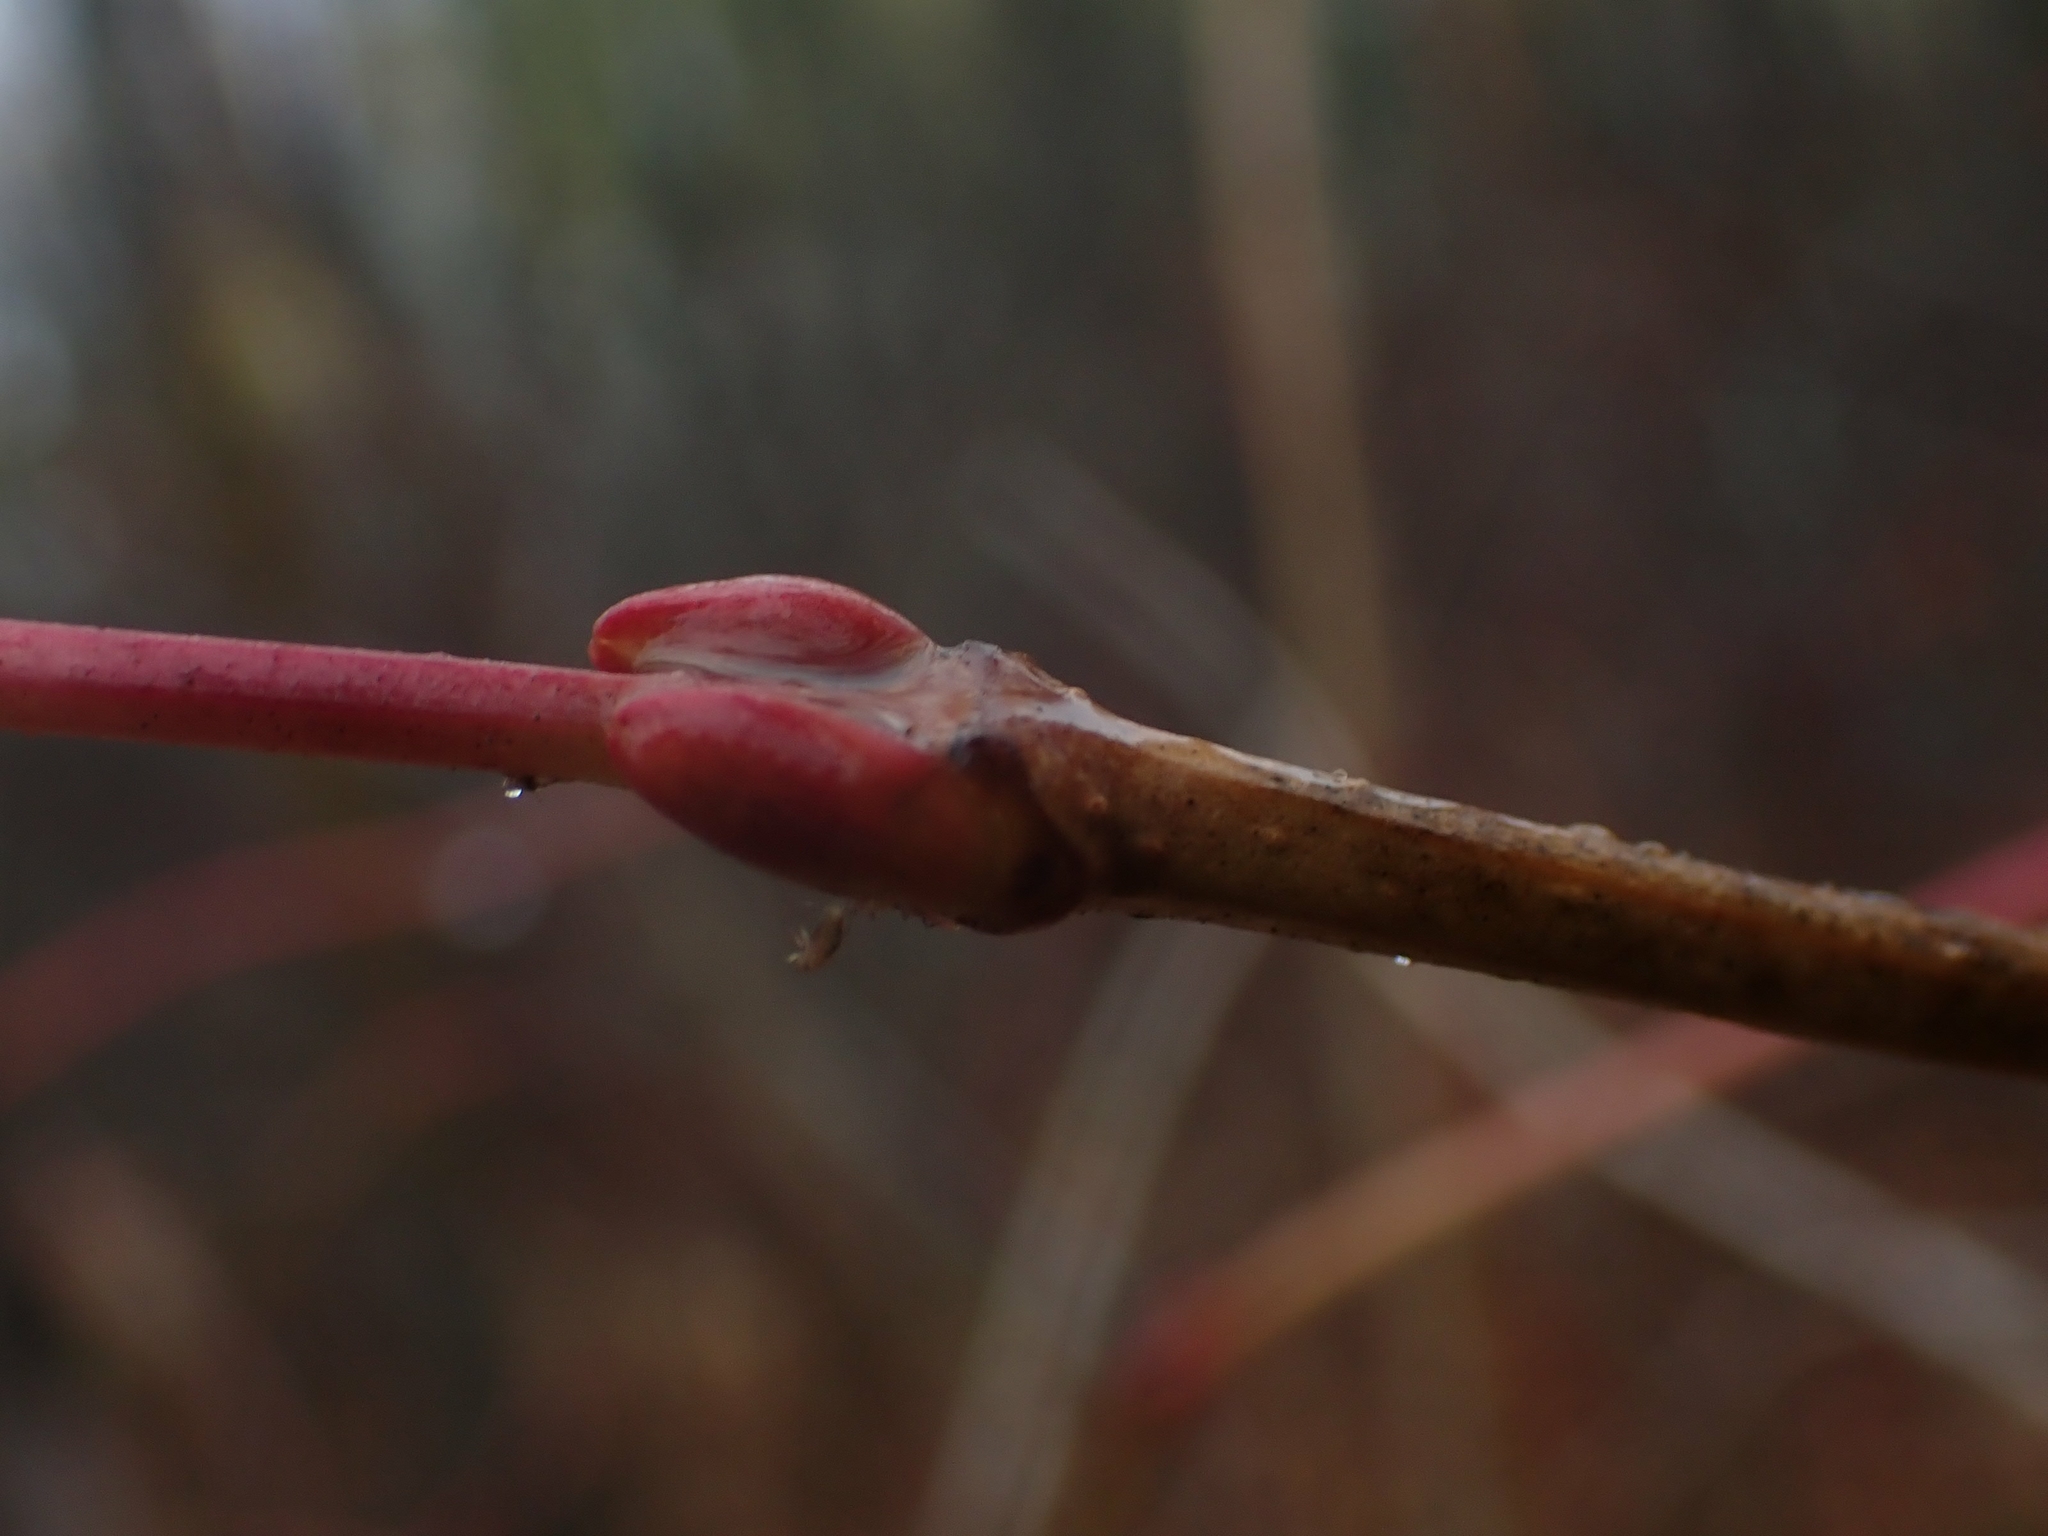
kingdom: Plantae
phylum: Tracheophyta
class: Magnoliopsida
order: Dipsacales
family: Viburnaceae
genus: Viburnum
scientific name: Viburnum trilobum
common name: American cranberrybush
